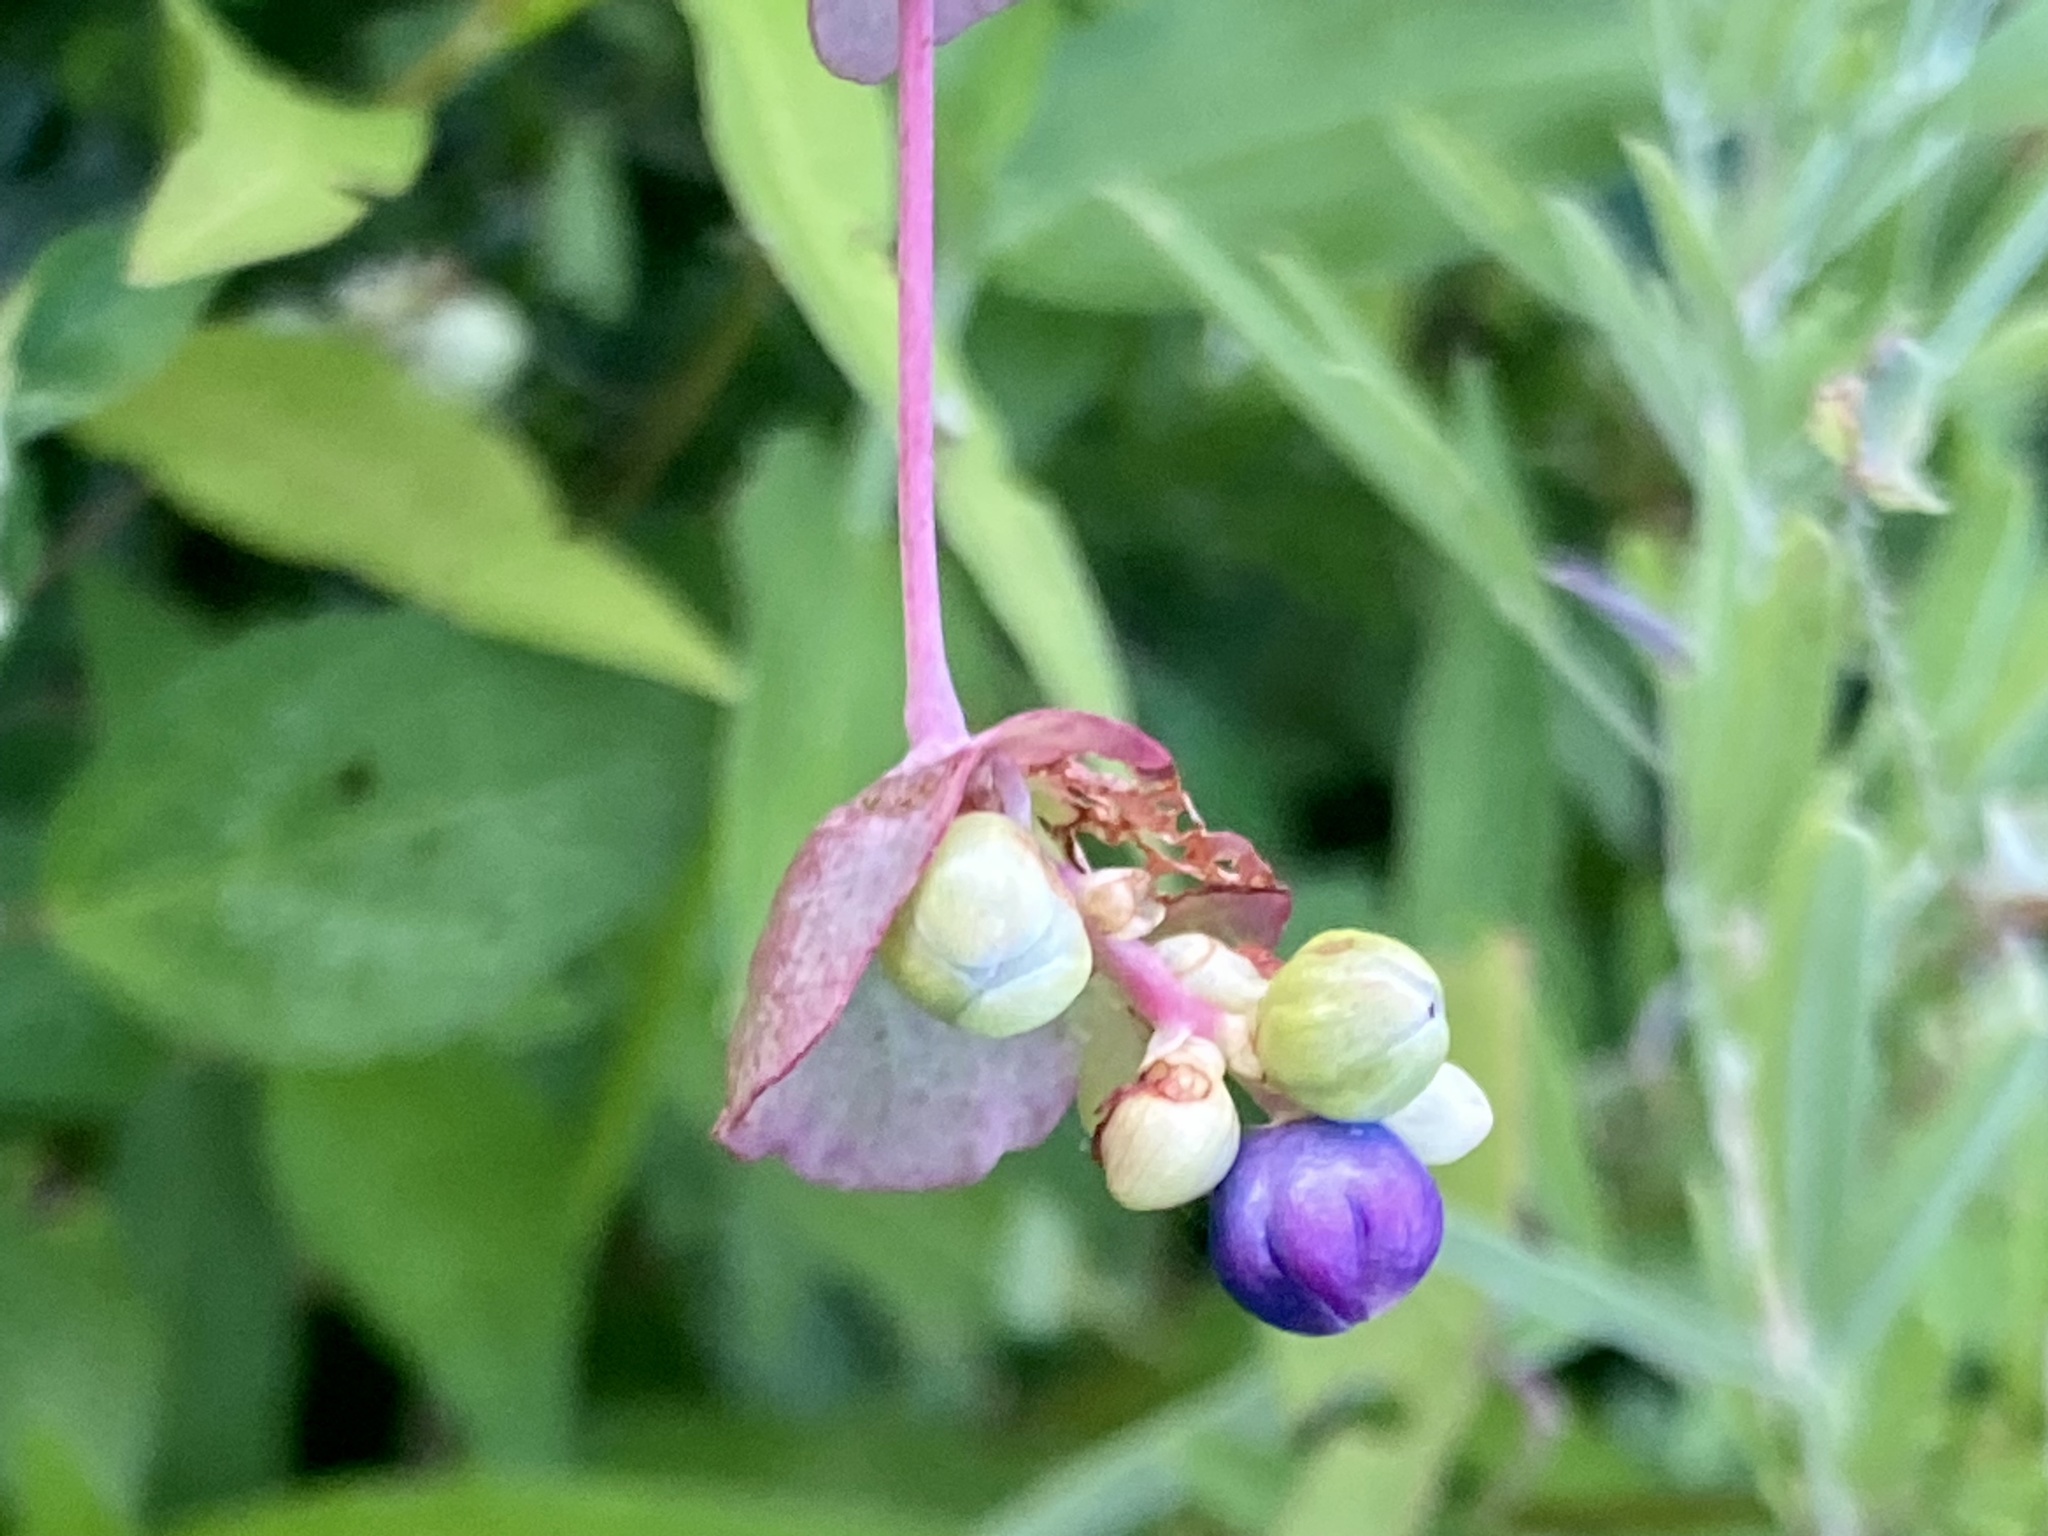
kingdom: Plantae
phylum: Tracheophyta
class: Magnoliopsida
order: Caryophyllales
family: Polygonaceae
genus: Persicaria
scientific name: Persicaria perfoliata
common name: Asiatic tearthumb
